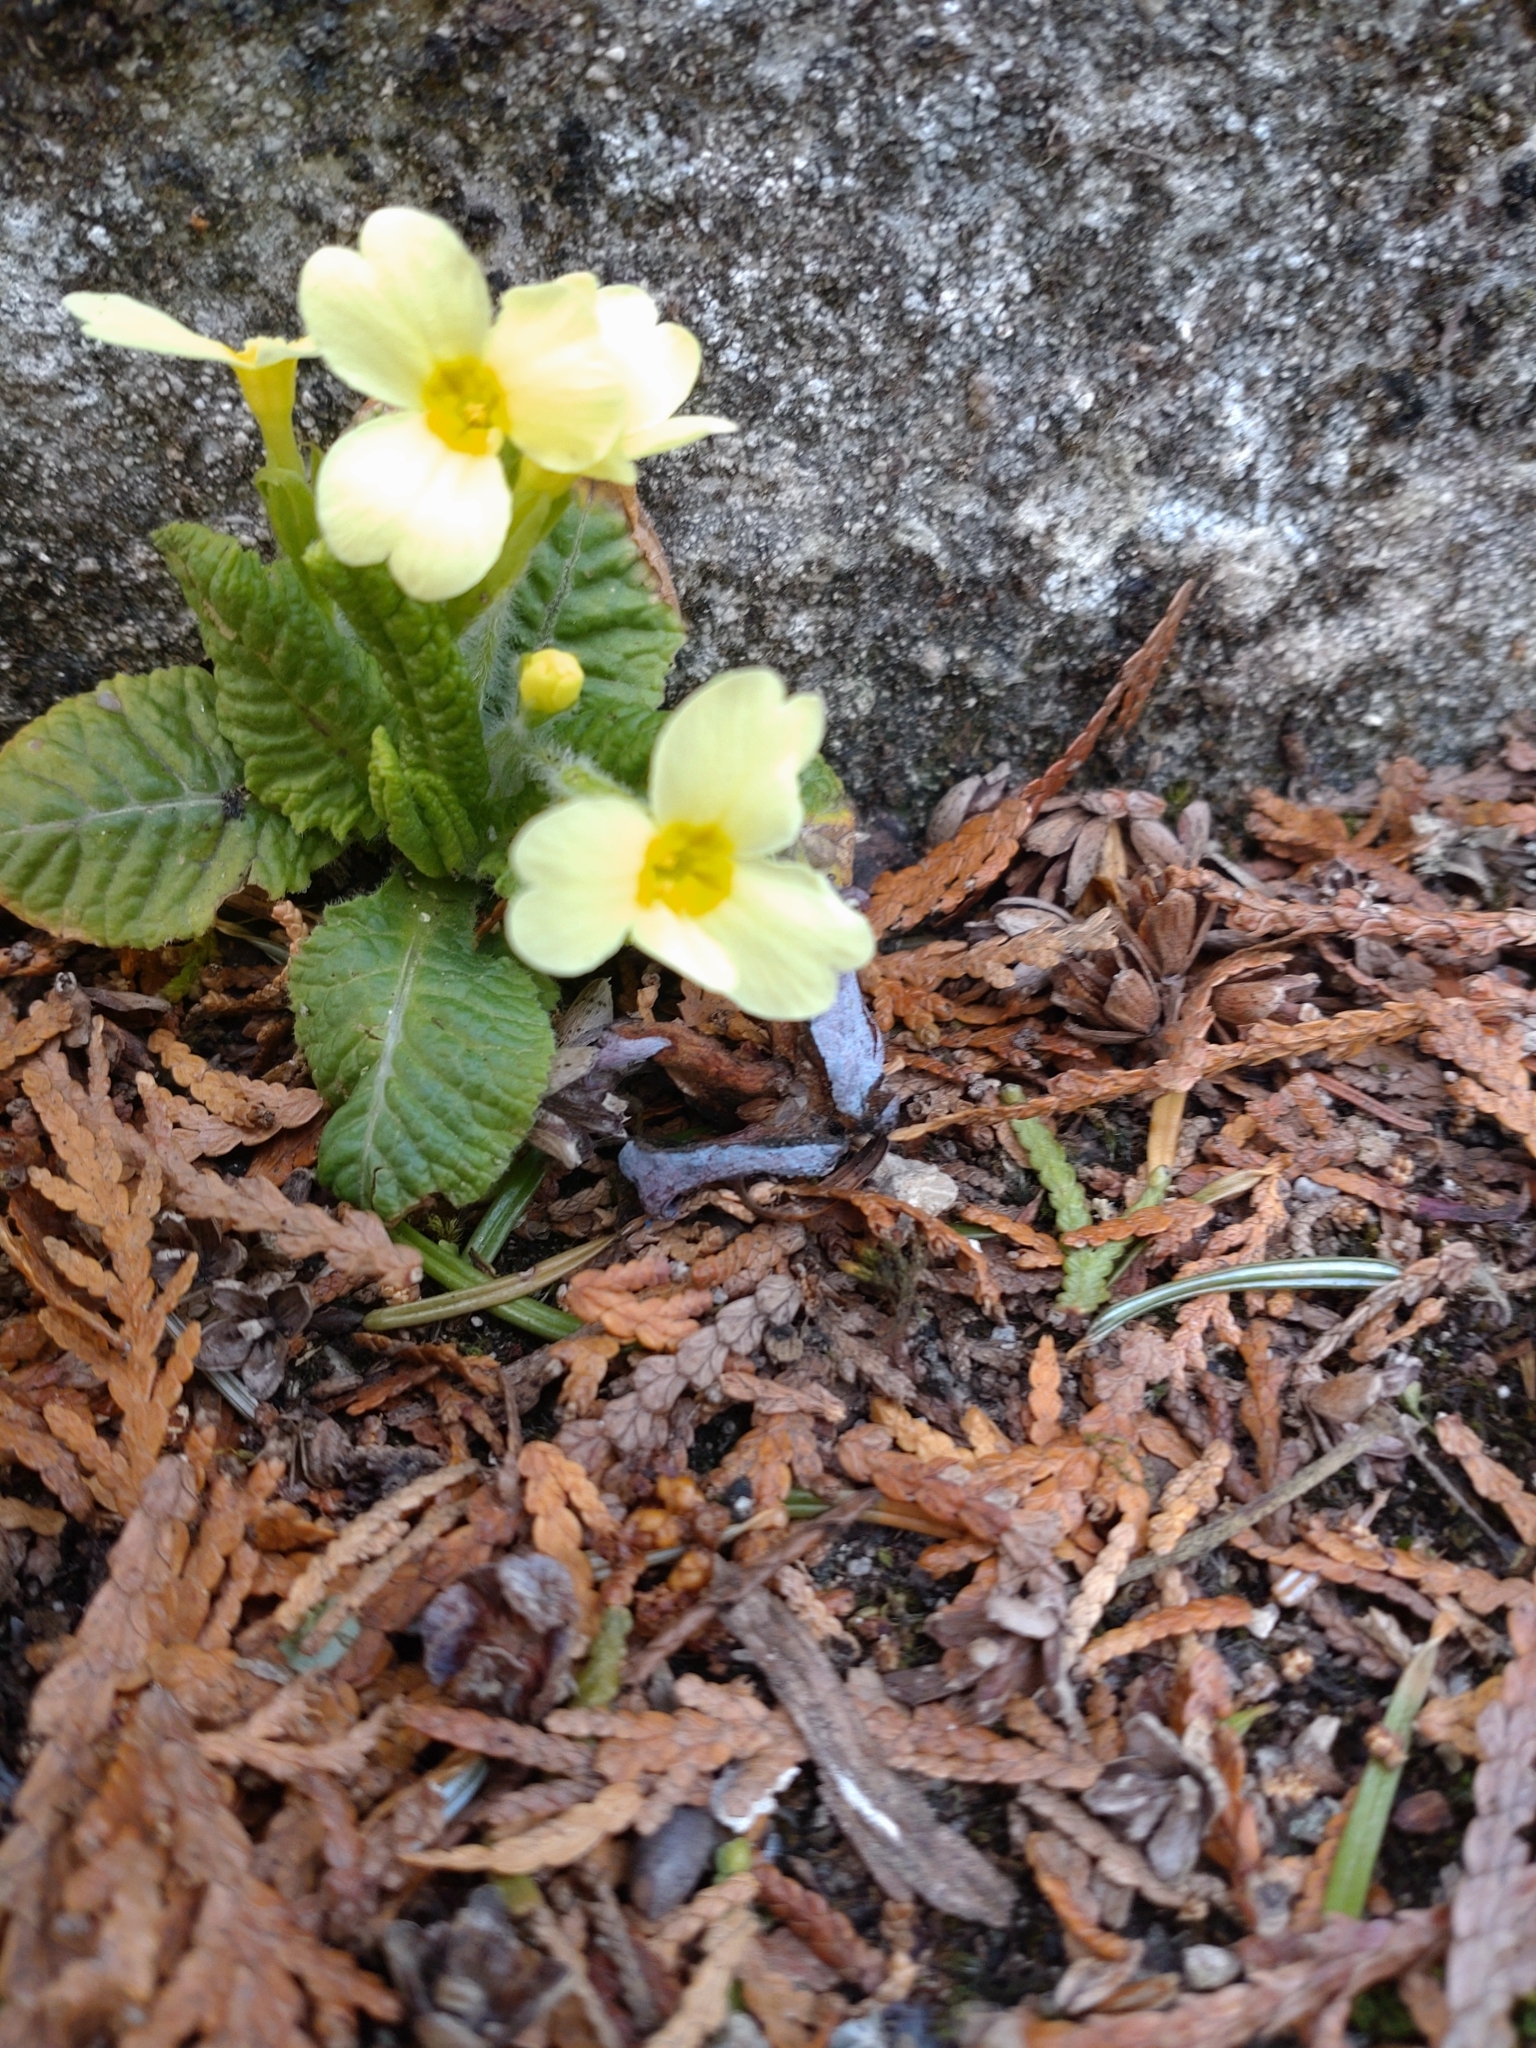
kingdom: Plantae
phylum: Tracheophyta
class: Magnoliopsida
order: Ericales
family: Primulaceae
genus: Primula
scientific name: Primula vulgaris
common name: Primrose
